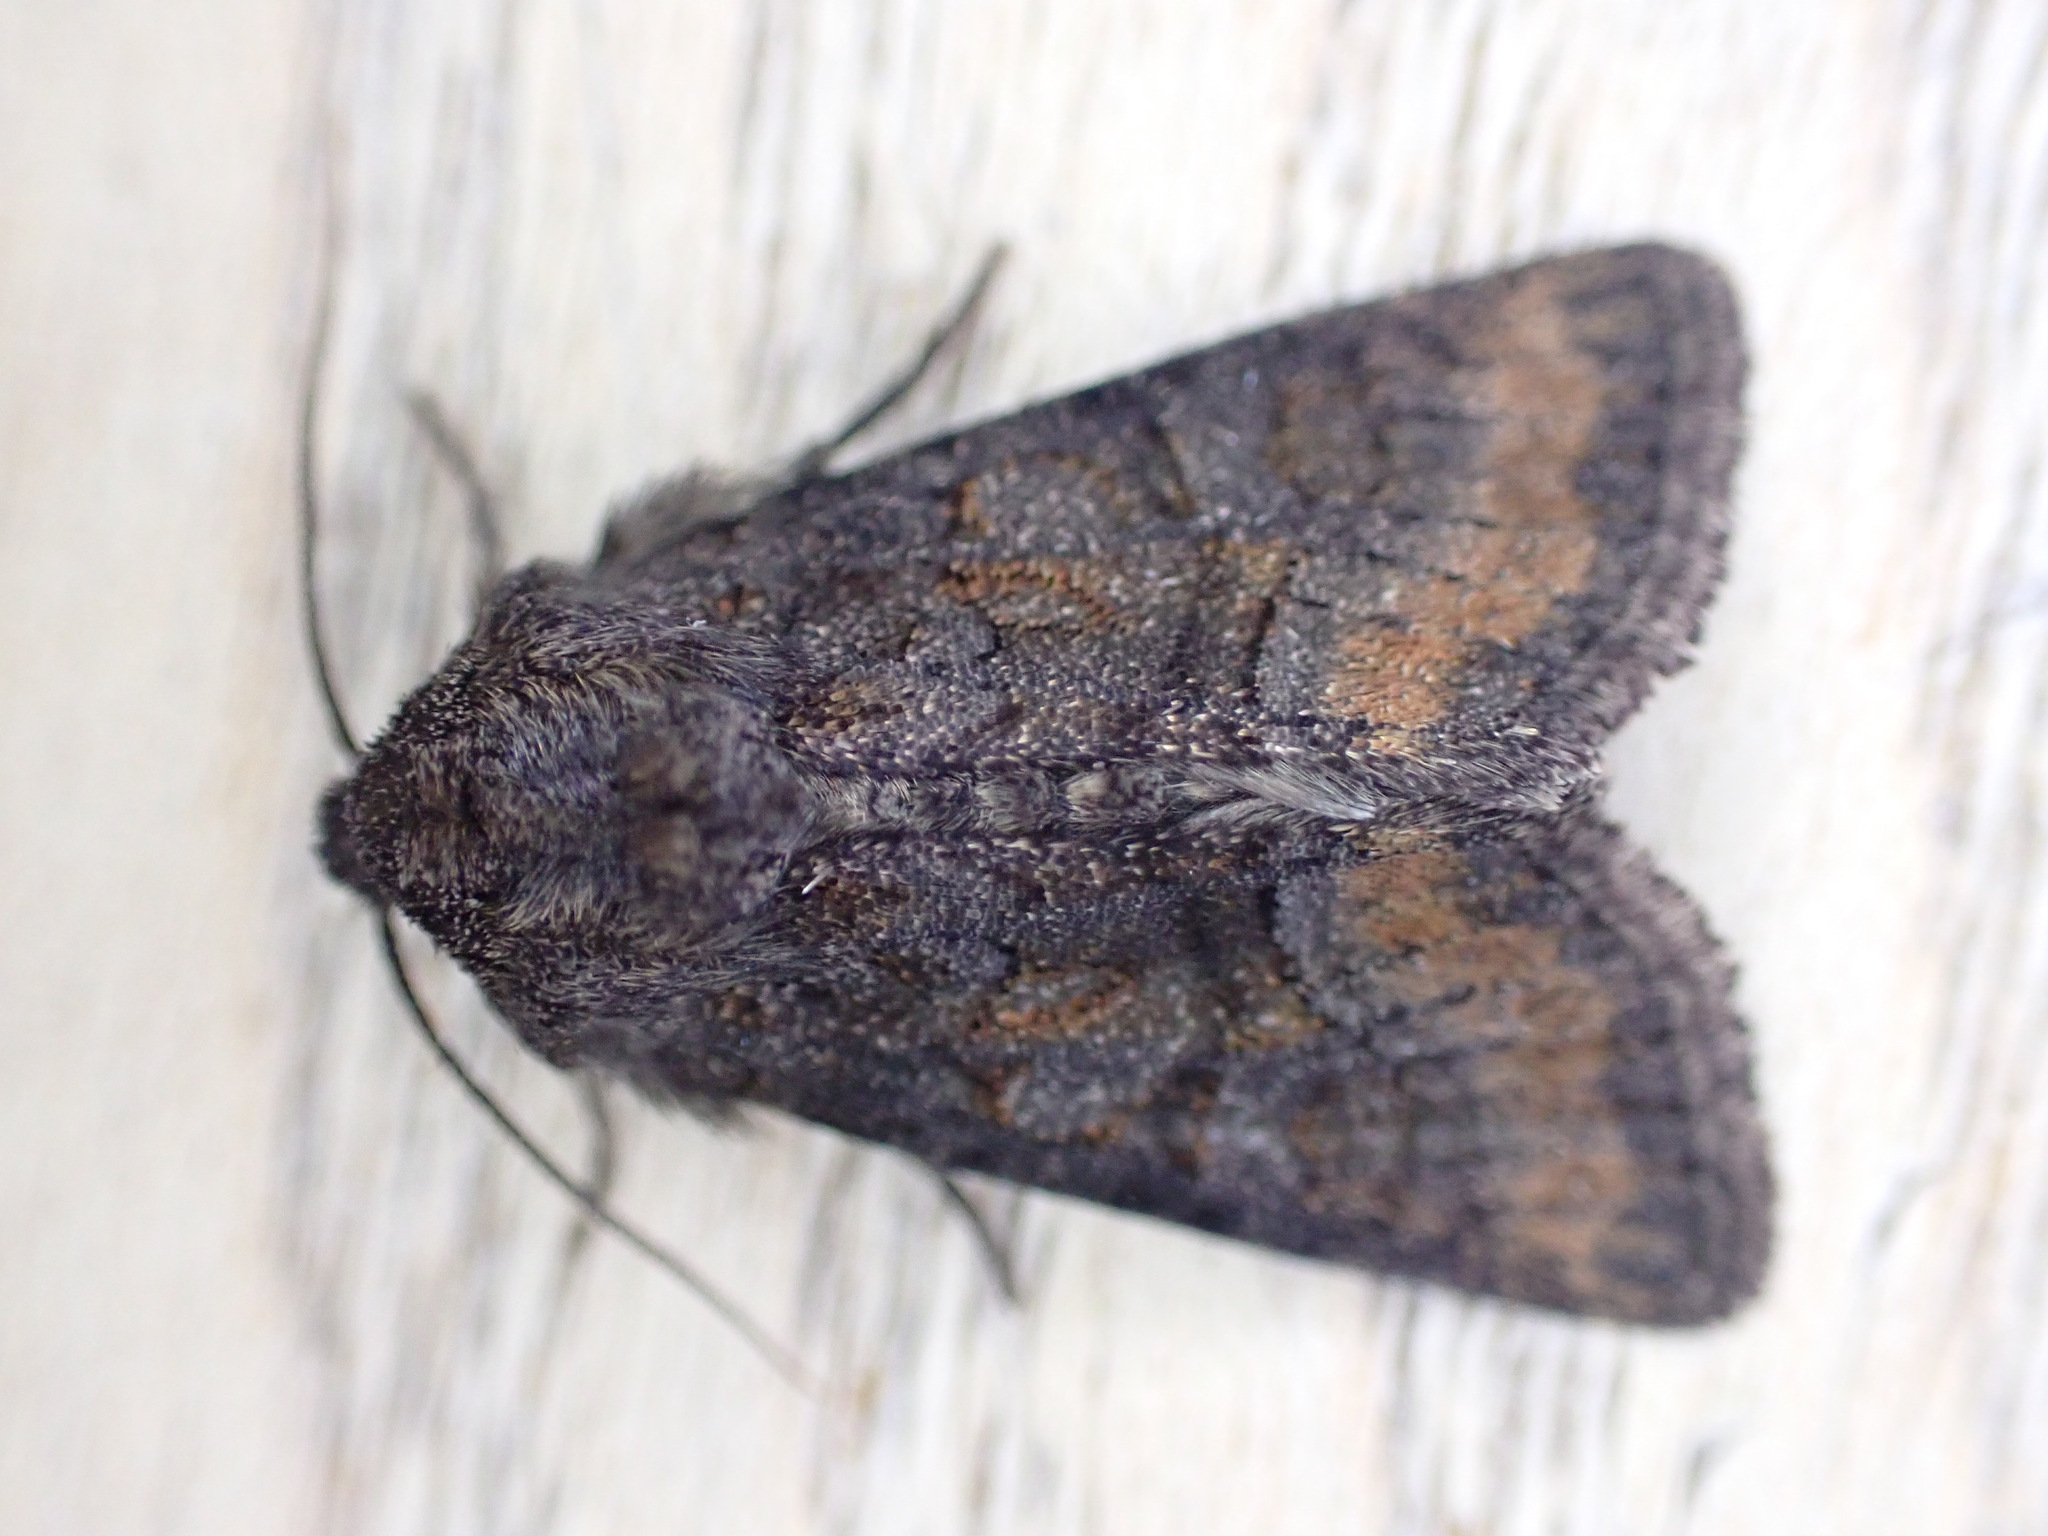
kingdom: Animalia
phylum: Arthropoda
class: Insecta
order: Lepidoptera
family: Noctuidae
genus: Oligia
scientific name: Oligia latruncula
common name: Tawny marbled minor
